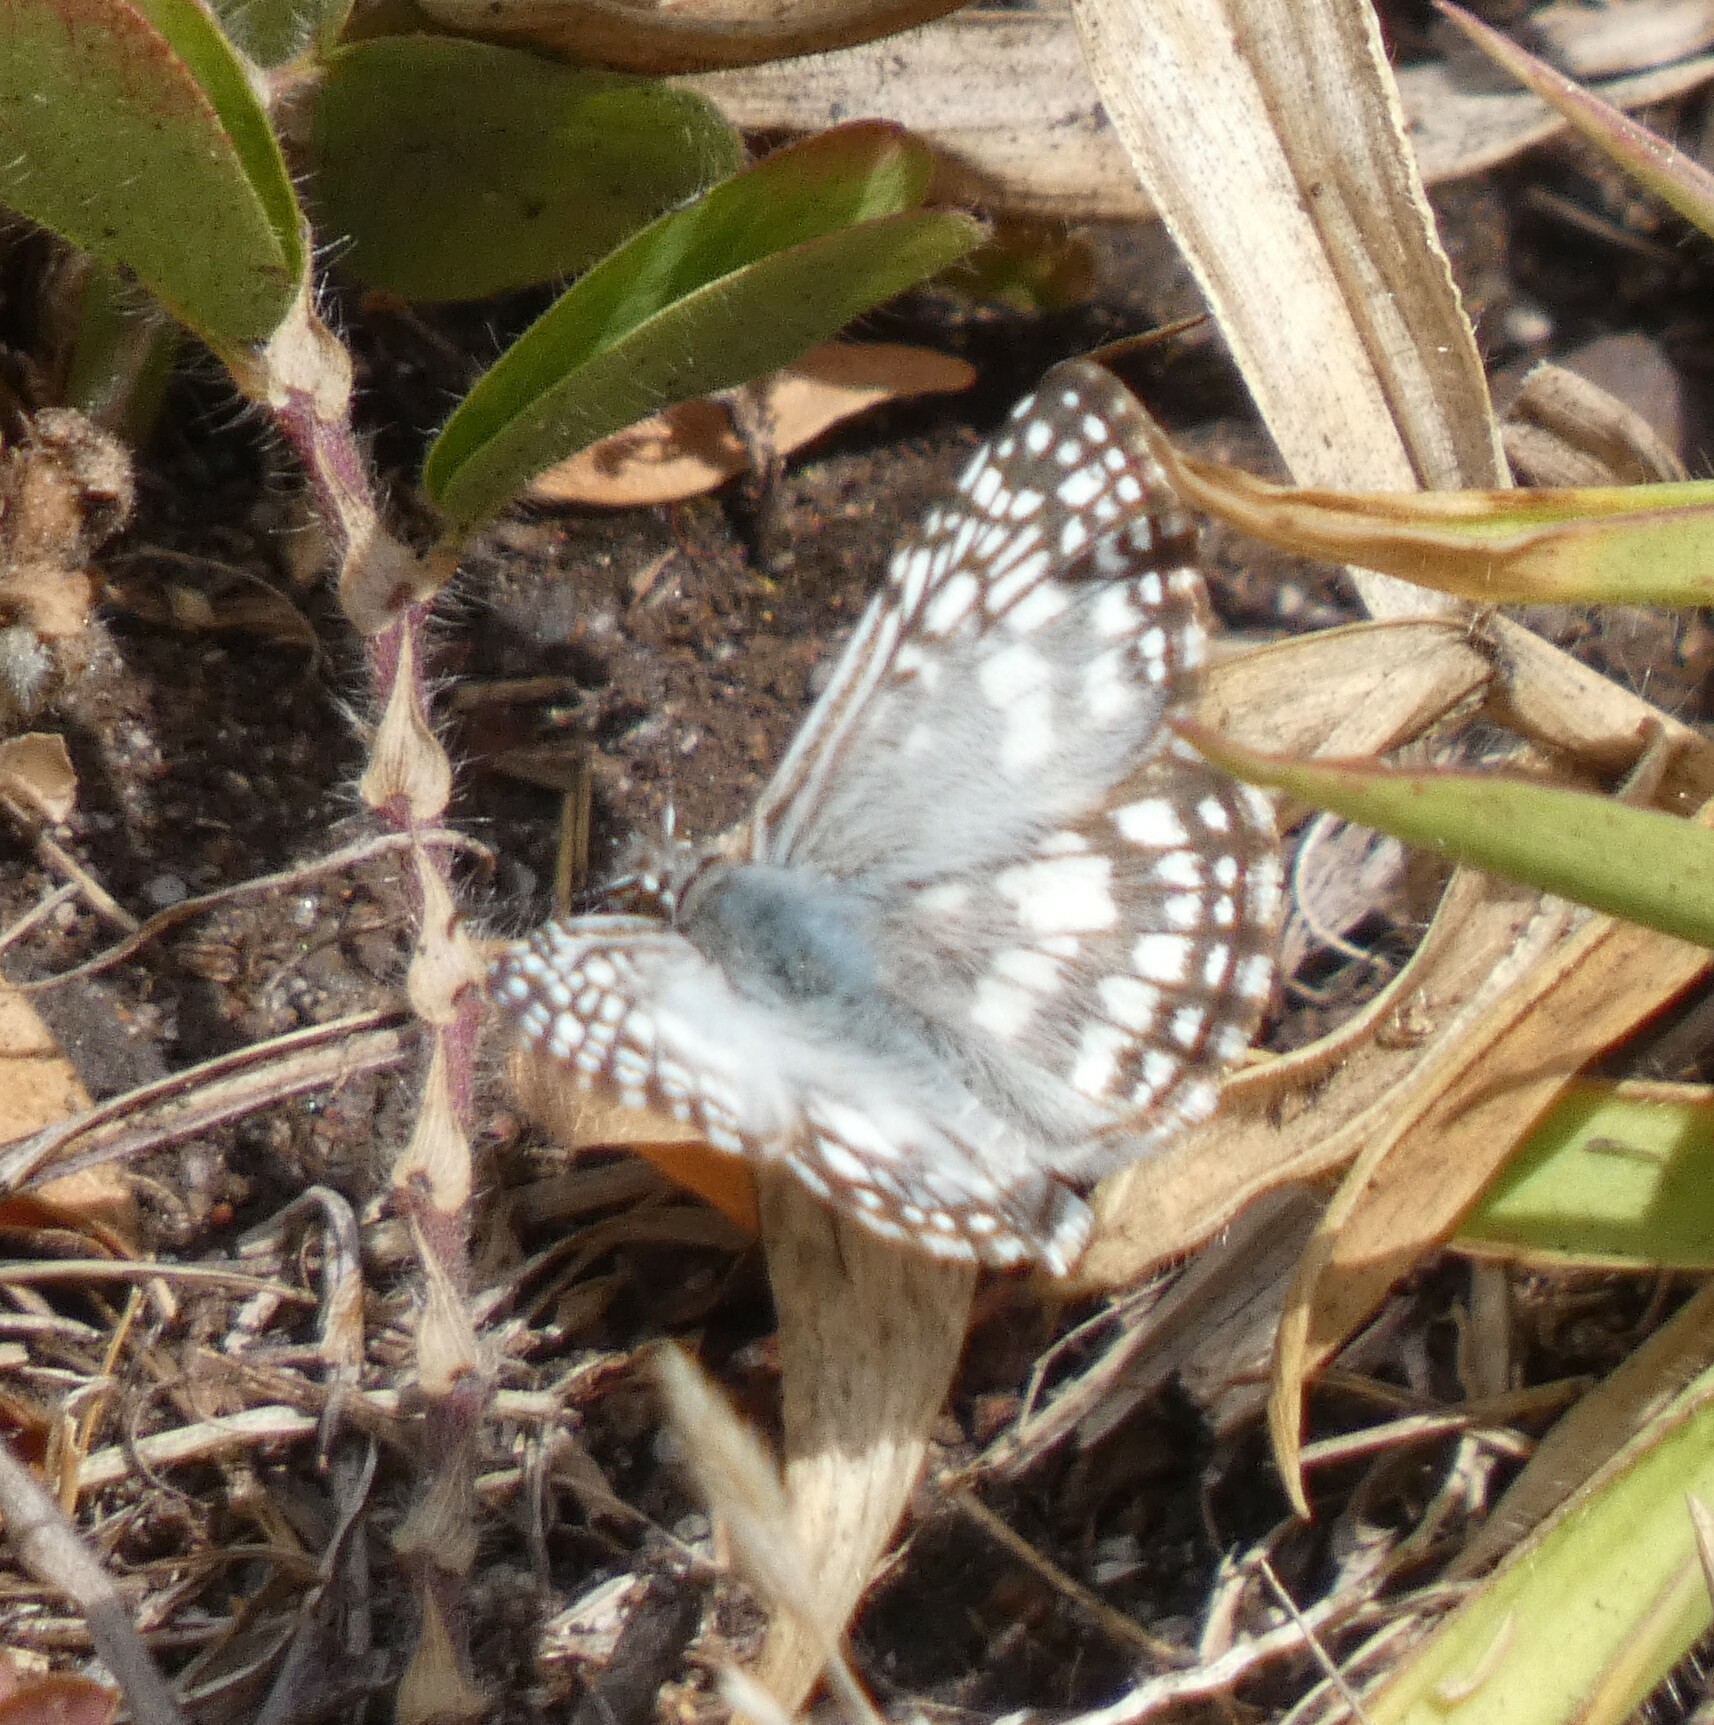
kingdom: Animalia
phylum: Arthropoda
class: Insecta
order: Lepidoptera
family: Hesperiidae
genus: Pyrgus
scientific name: Pyrgus oileus
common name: Tropical checkered-skipper
